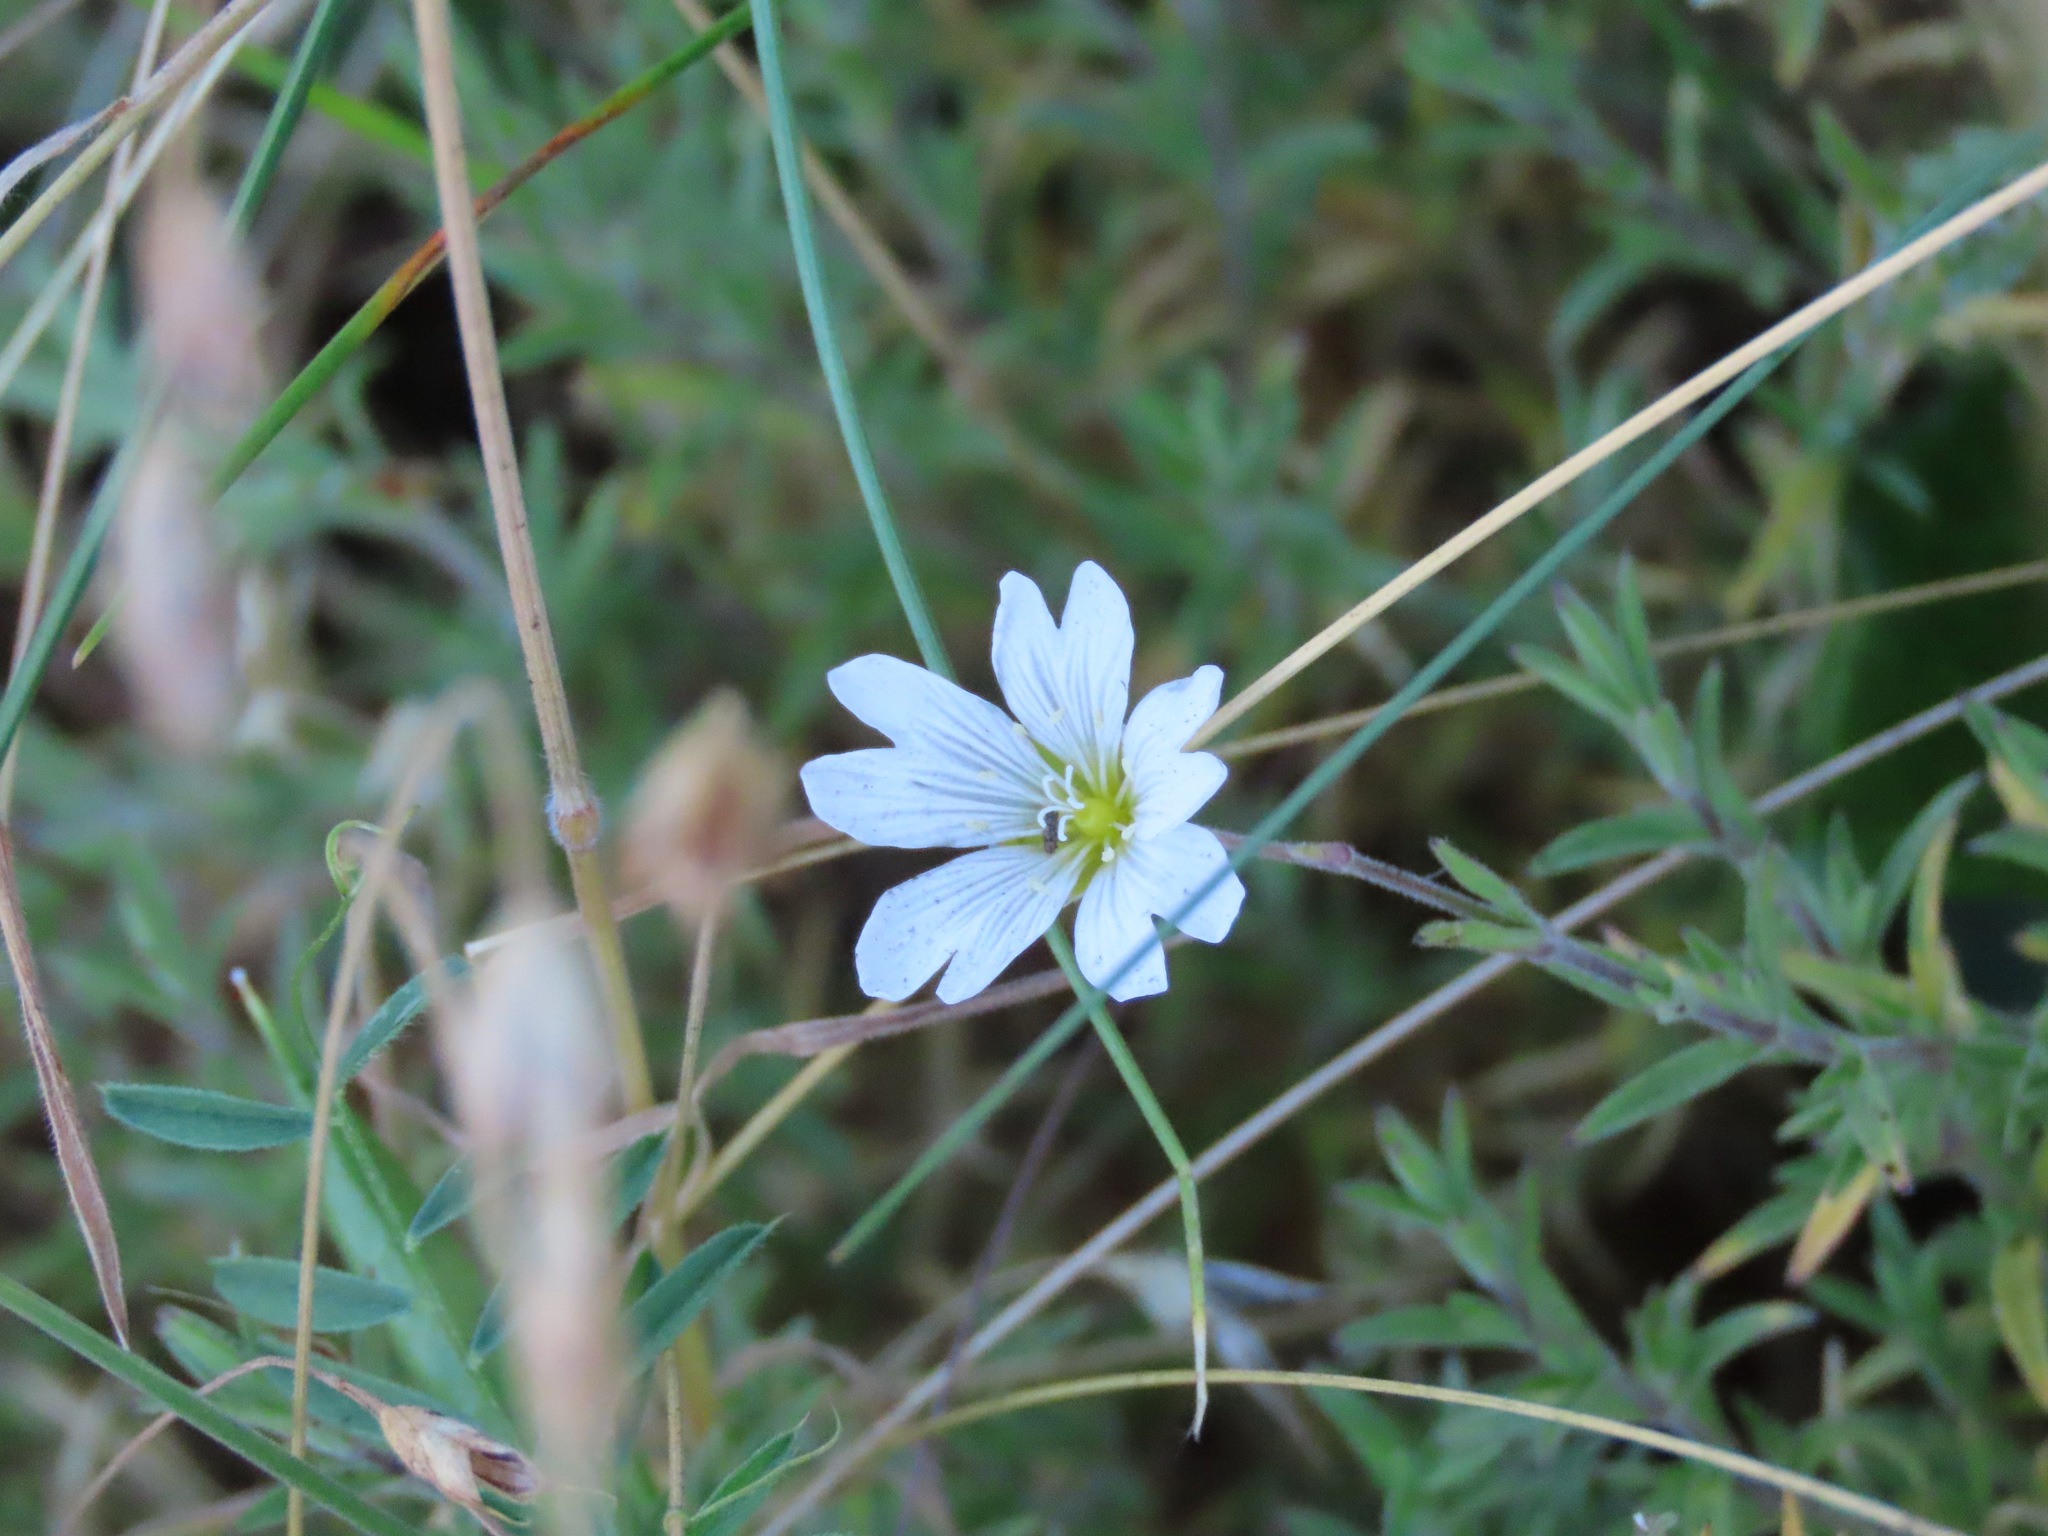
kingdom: Plantae
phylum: Tracheophyta
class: Magnoliopsida
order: Caryophyllales
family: Caryophyllaceae
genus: Cerastium
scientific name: Cerastium arvense
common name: Field mouse-ear
